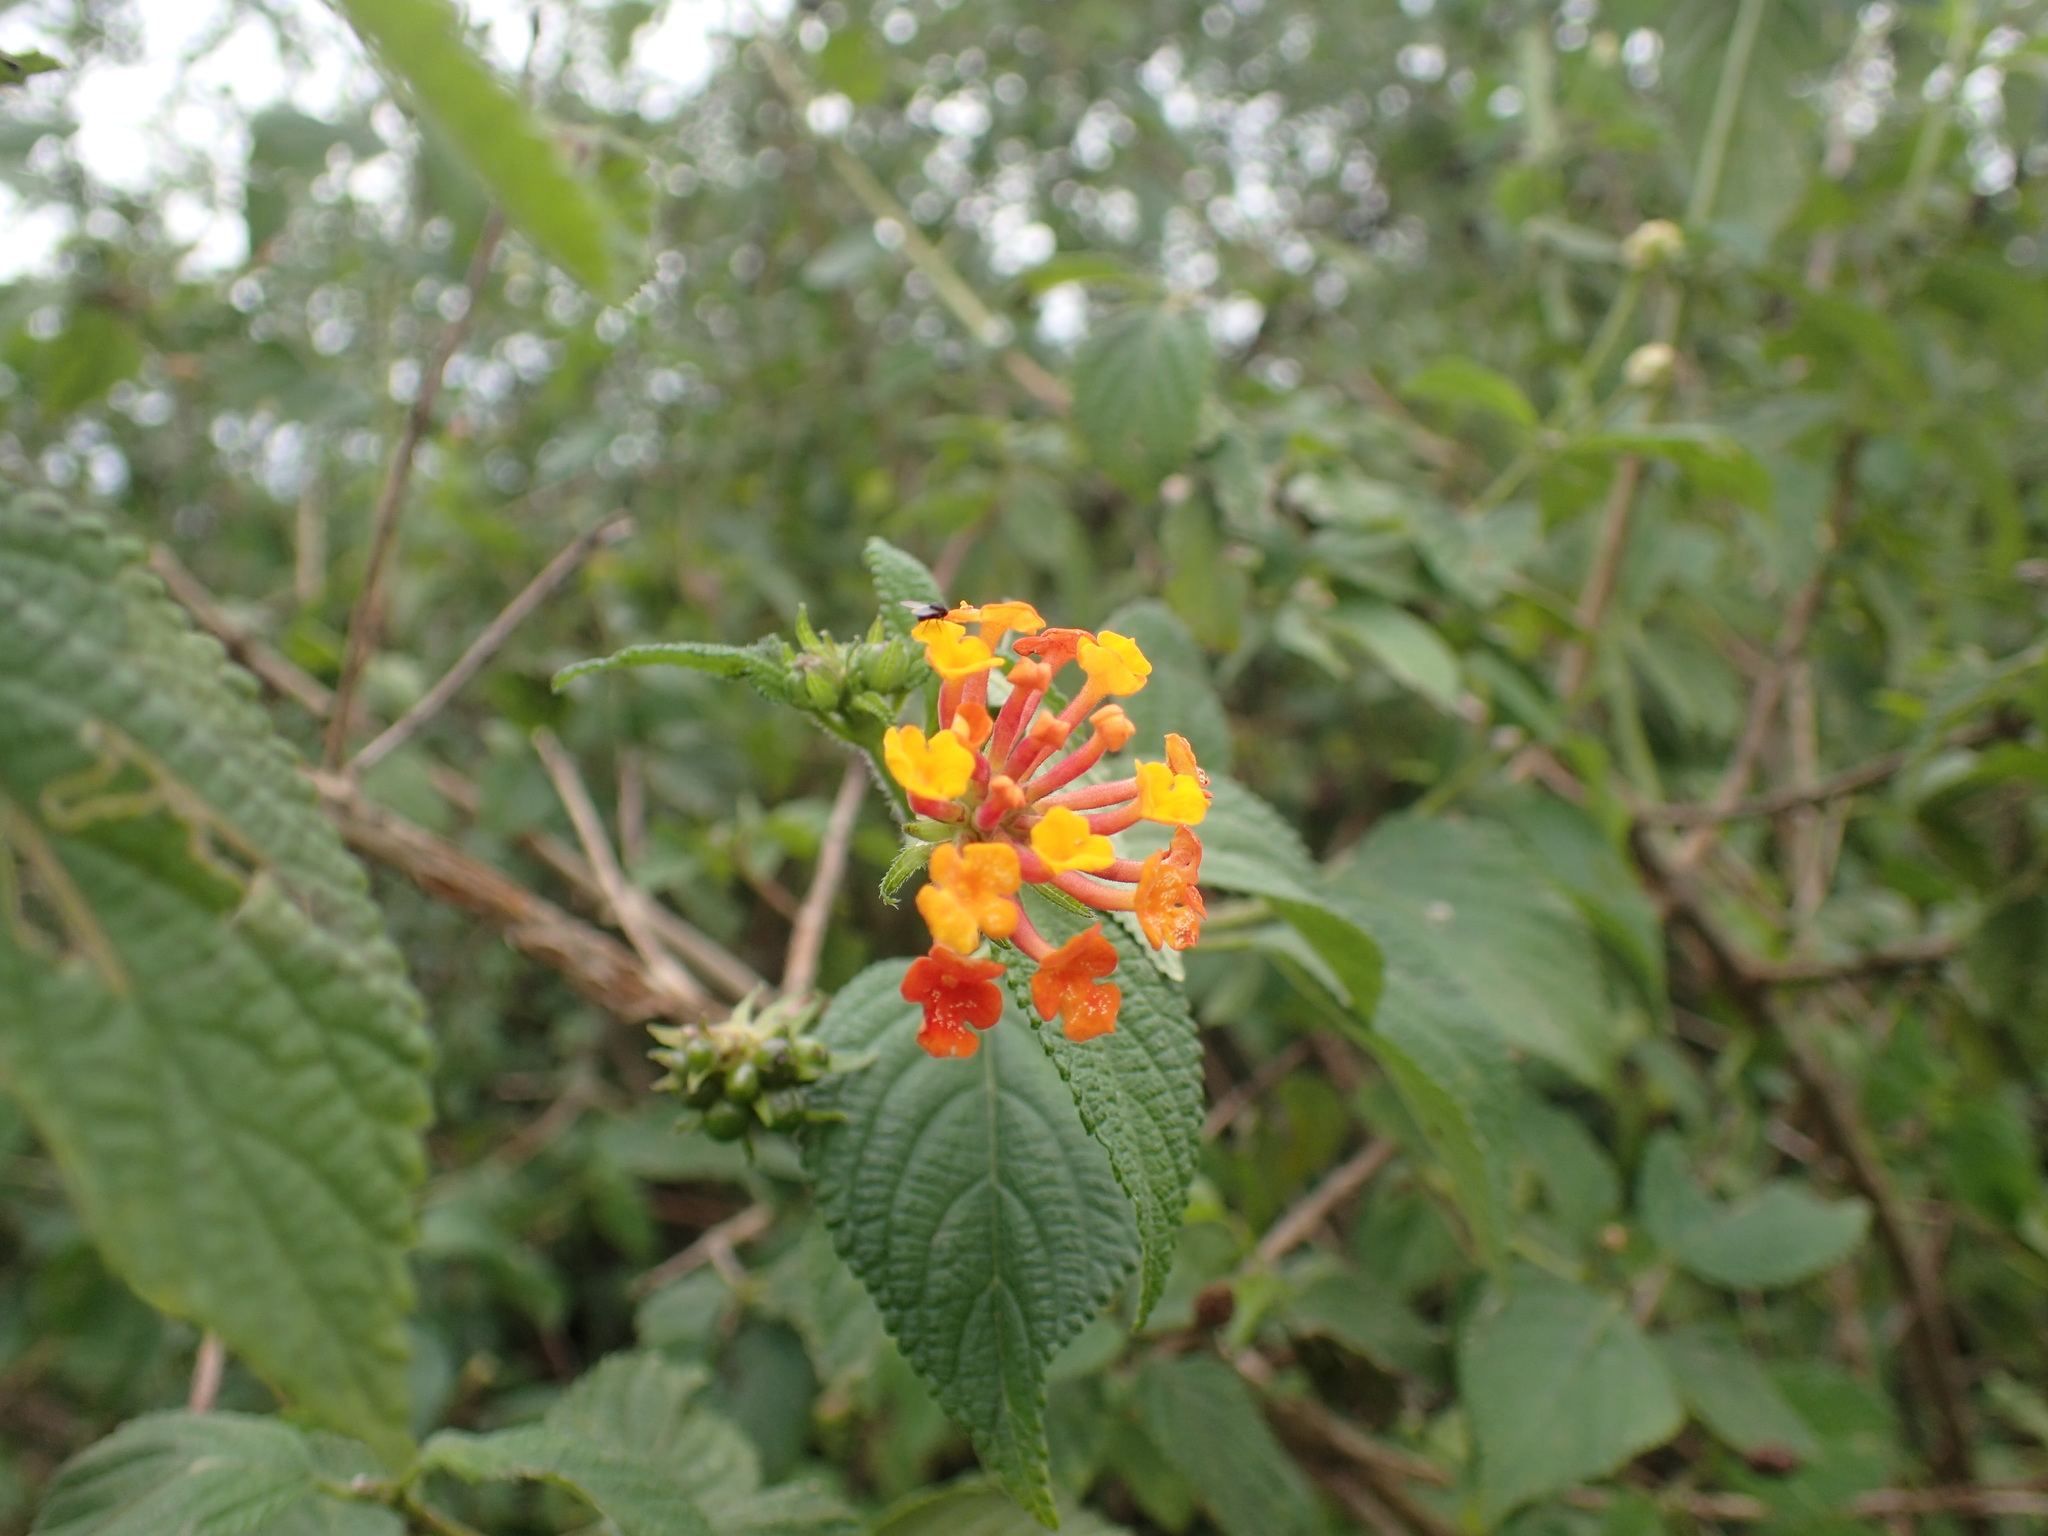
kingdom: Plantae
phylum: Tracheophyta
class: Magnoliopsida
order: Lamiales
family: Verbenaceae
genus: Lantana
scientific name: Lantana camara
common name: Lantana
